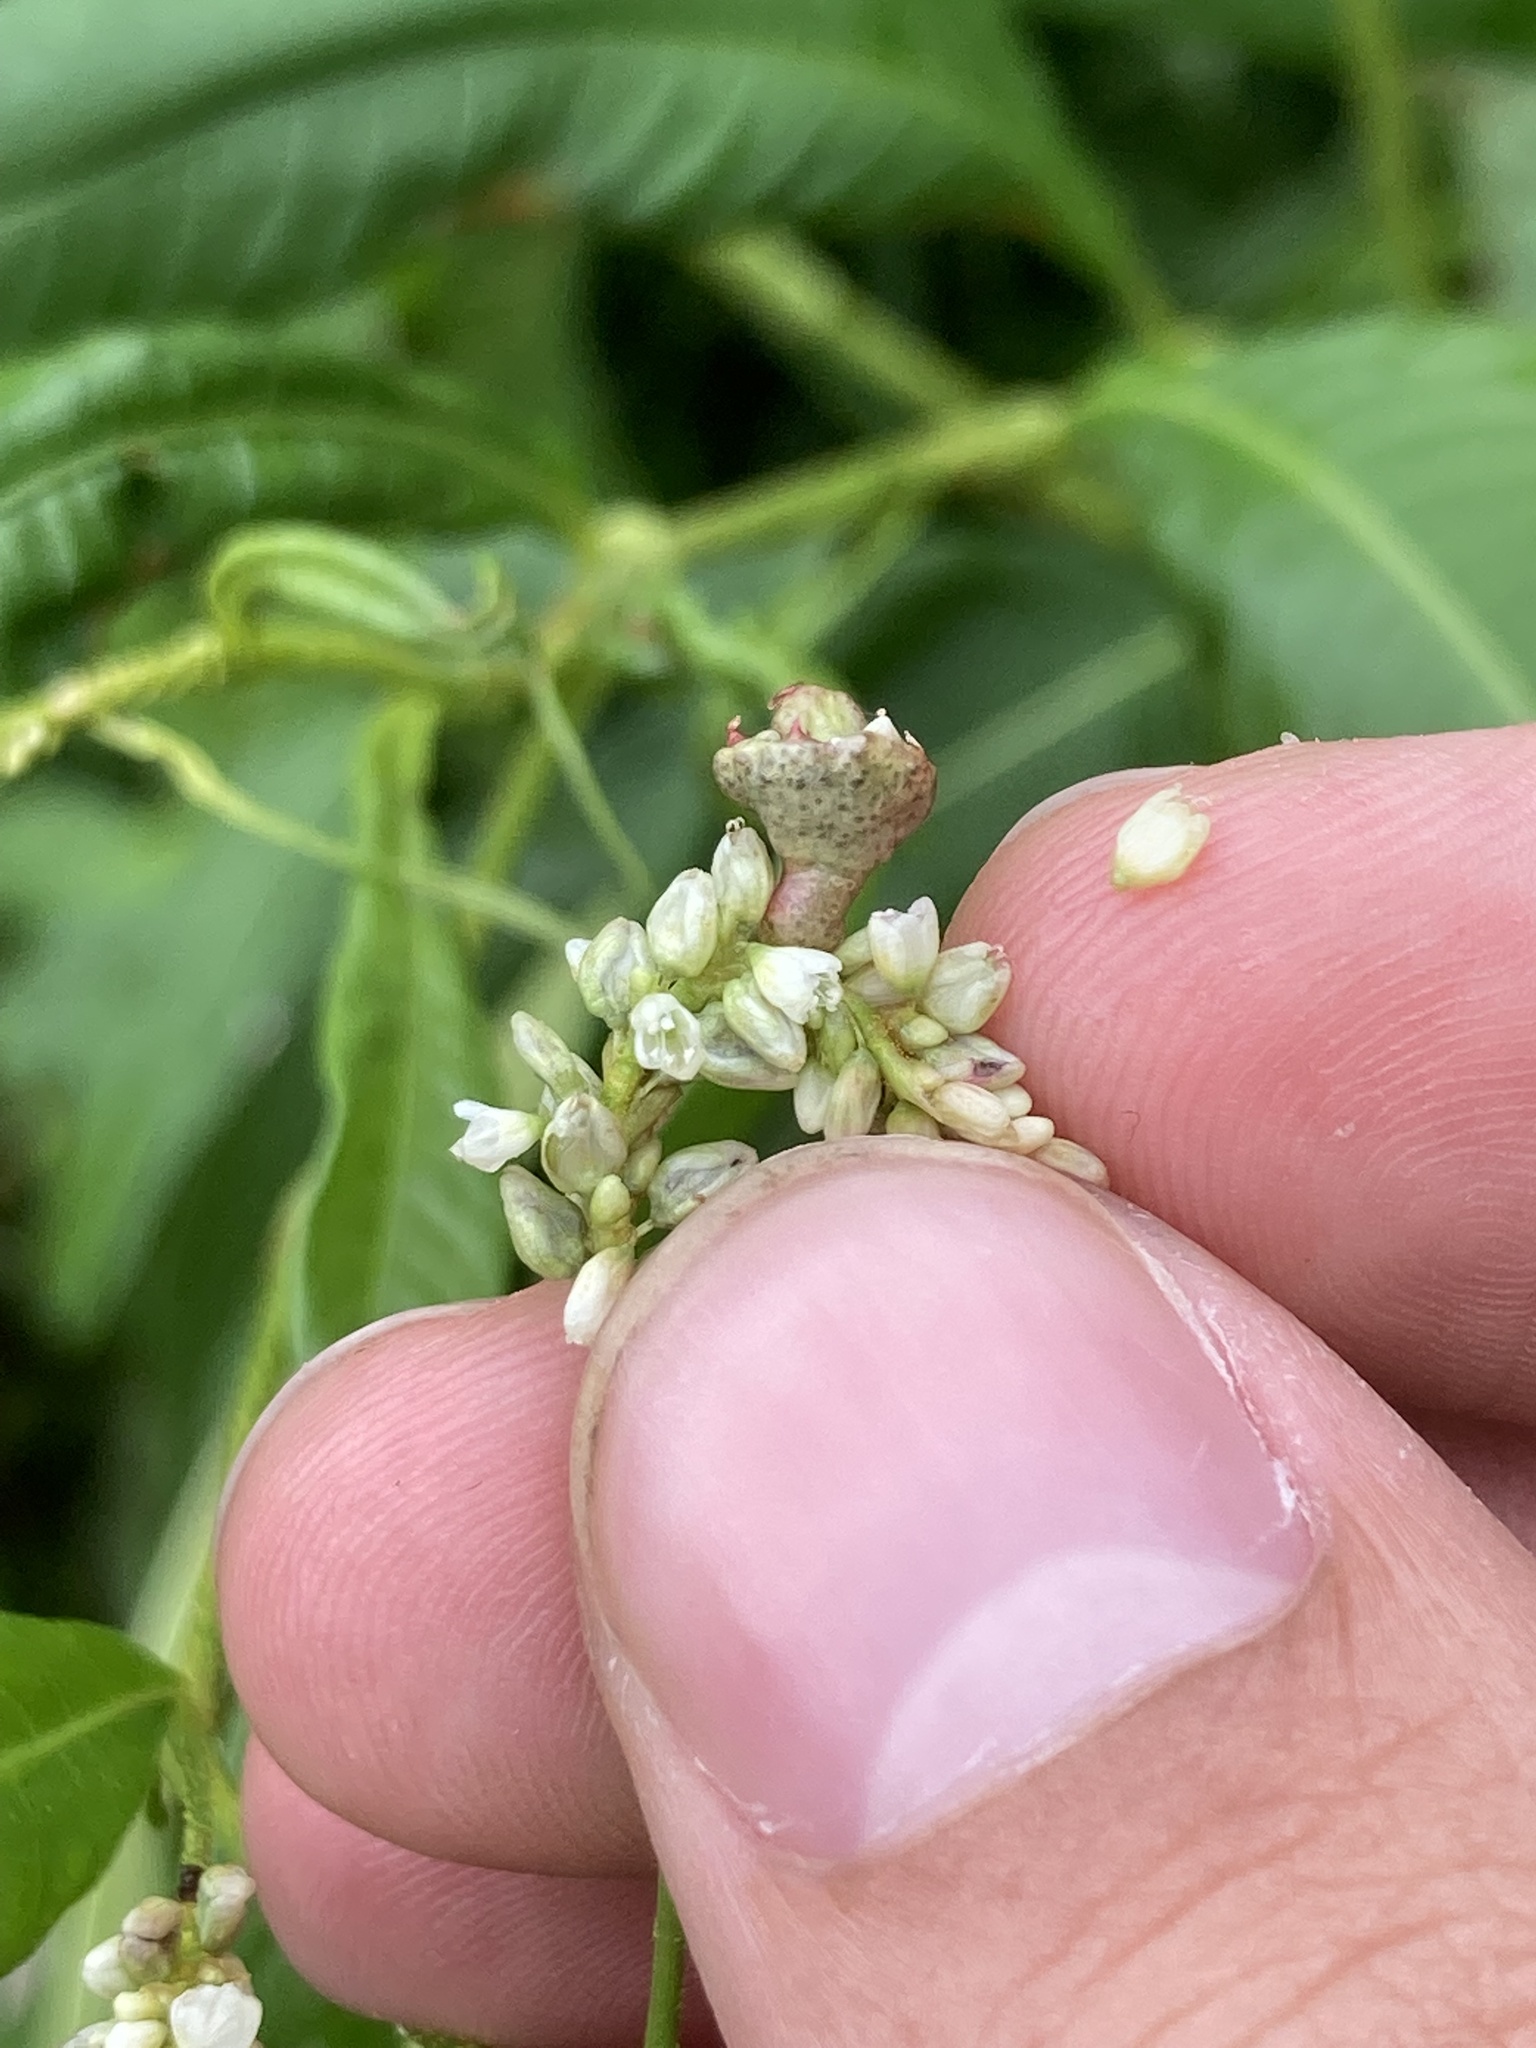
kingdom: Fungi
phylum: Basidiomycota
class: Ustilaginomycetes
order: Ustilaginales
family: Ustilaginaceae
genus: Melanopsichium
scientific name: Melanopsichium pennsylvanicum
